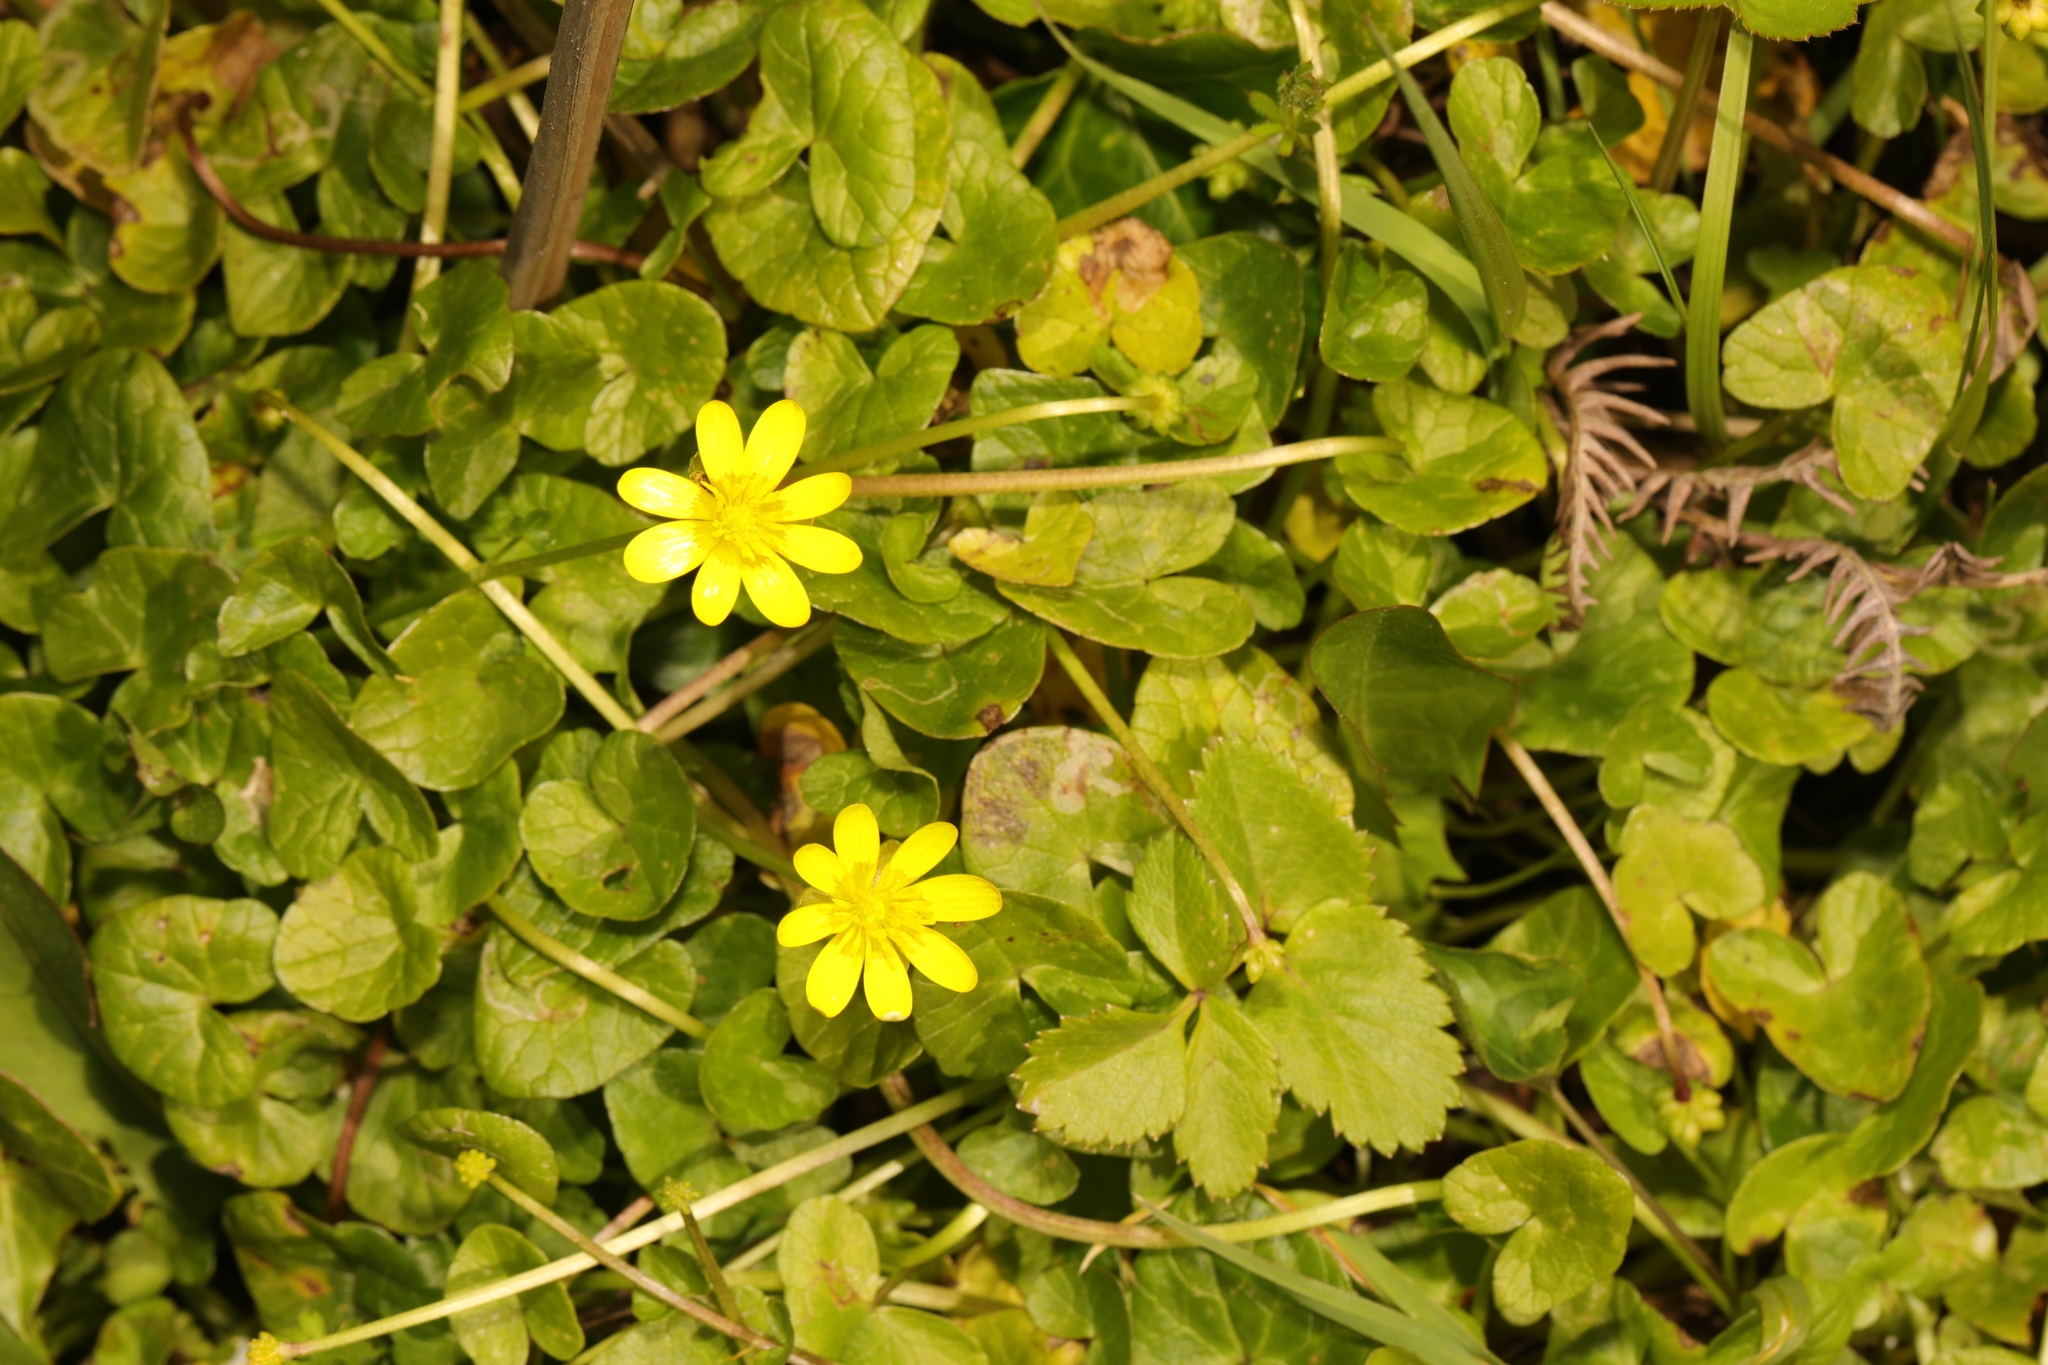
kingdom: Plantae
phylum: Tracheophyta
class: Magnoliopsida
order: Ranunculales
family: Ranunculaceae
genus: Ficaria
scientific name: Ficaria verna
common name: Lesser celandine
